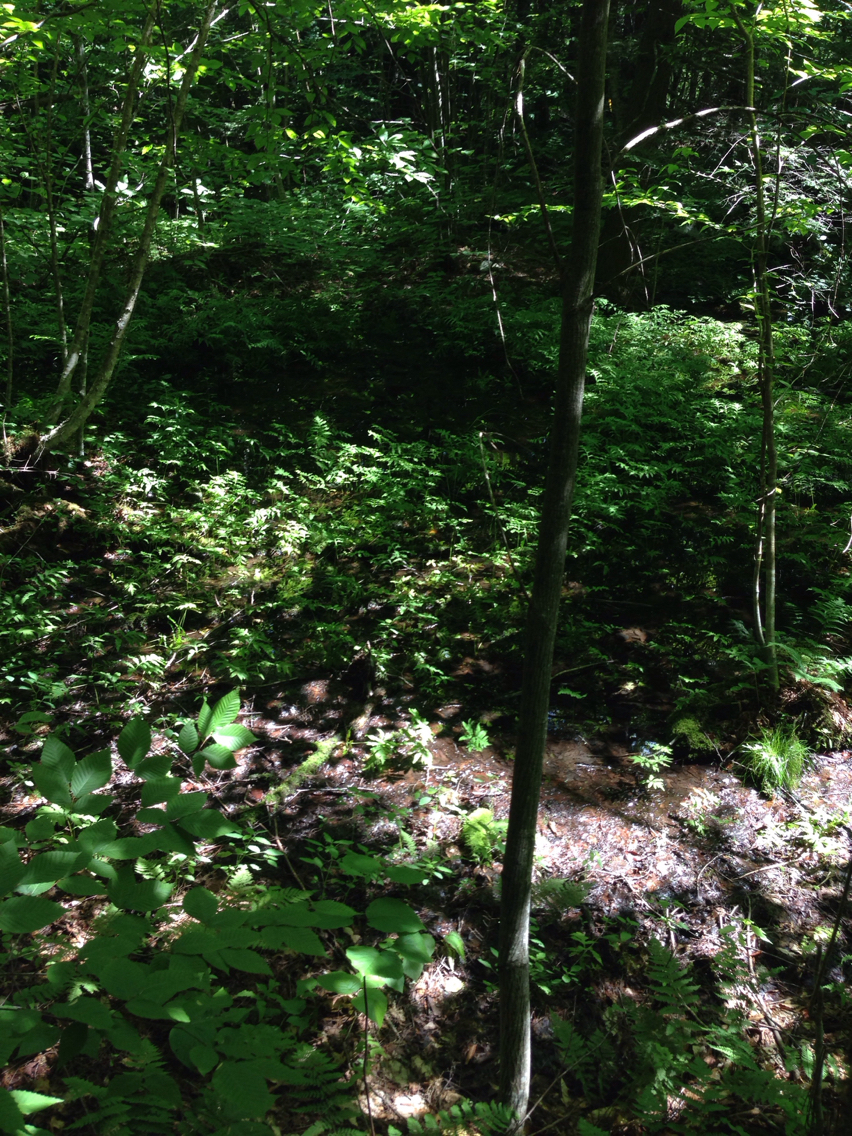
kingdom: Plantae
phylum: Tracheophyta
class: Polypodiopsida
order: Polypodiales
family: Onocleaceae
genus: Onoclea
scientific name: Onoclea sensibilis
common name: Sensitive fern
